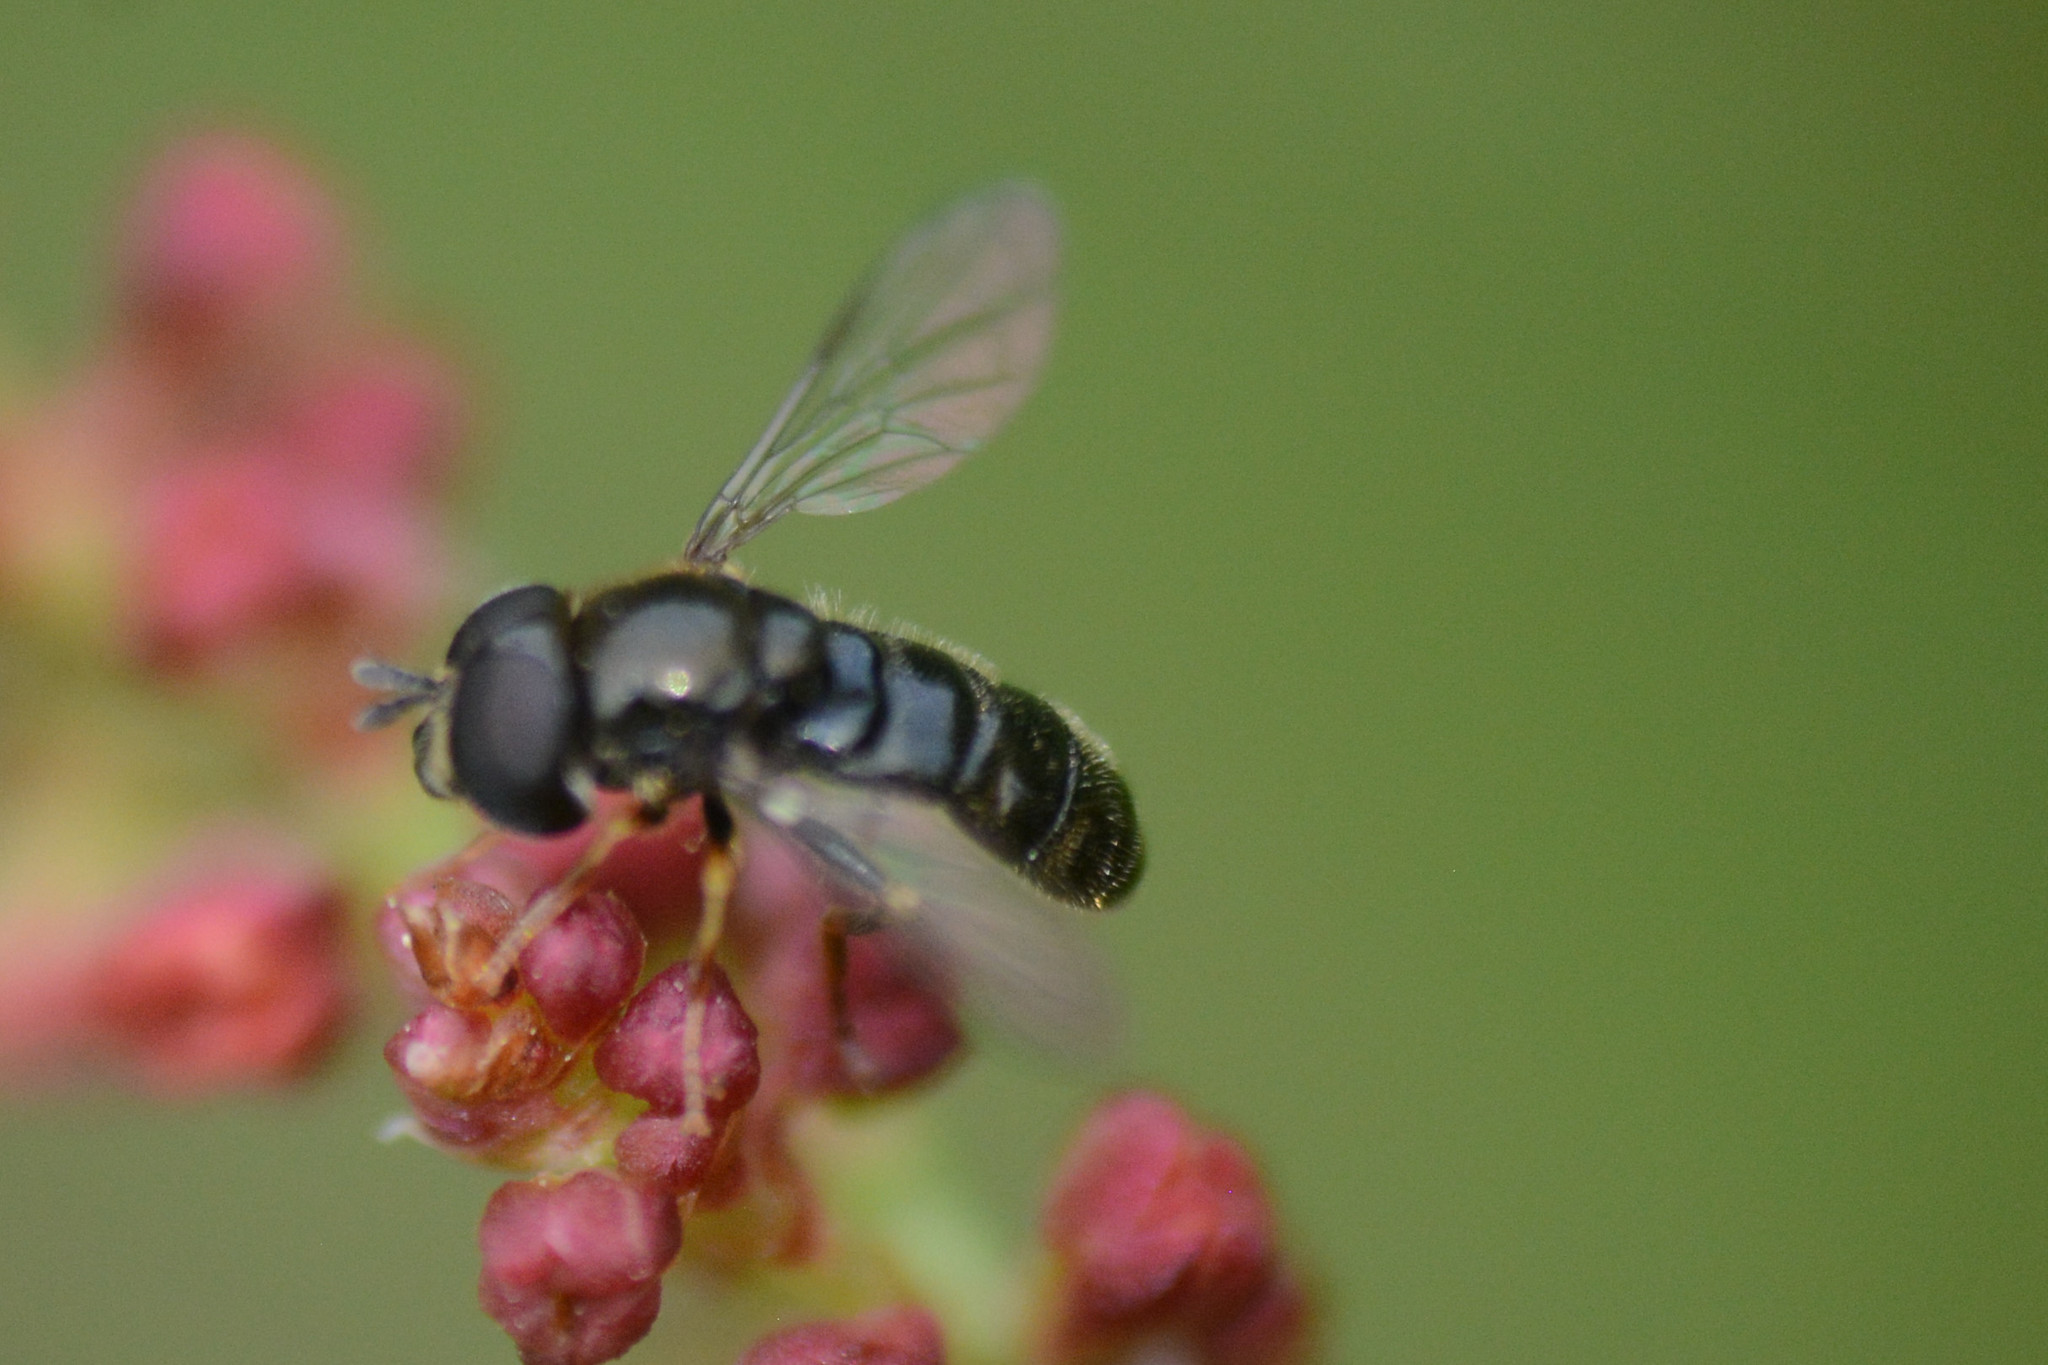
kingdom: Animalia
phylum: Arthropoda
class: Insecta
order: Diptera
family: Syrphidae
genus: Paragus
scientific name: Paragus
